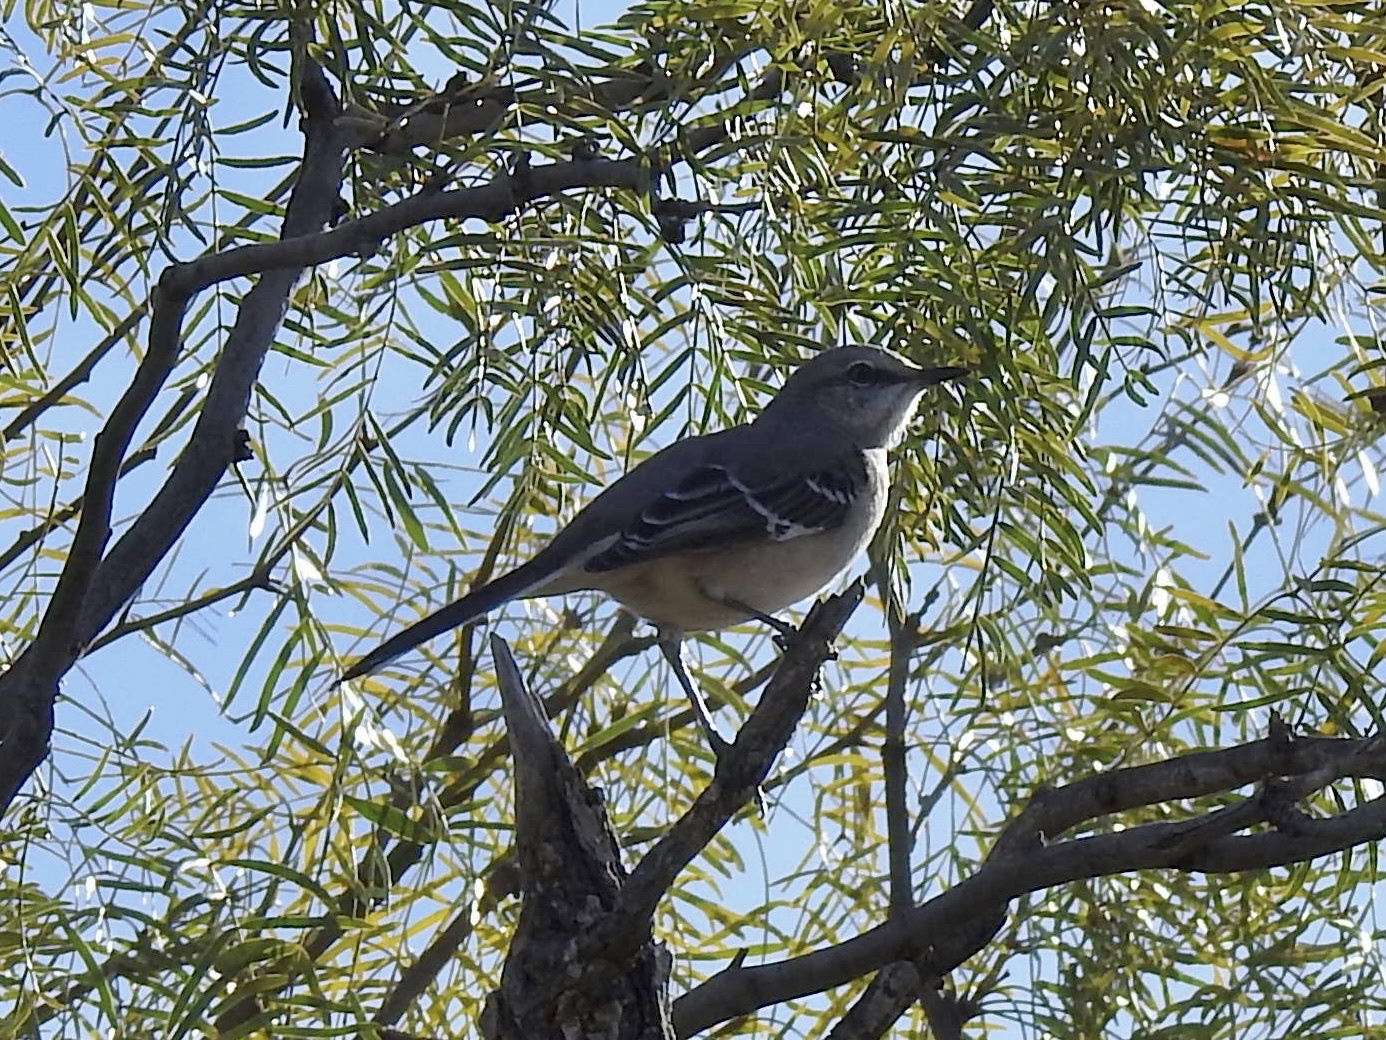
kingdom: Animalia
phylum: Chordata
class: Aves
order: Passeriformes
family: Mimidae
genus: Mimus
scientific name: Mimus polyglottos
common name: Northern mockingbird
